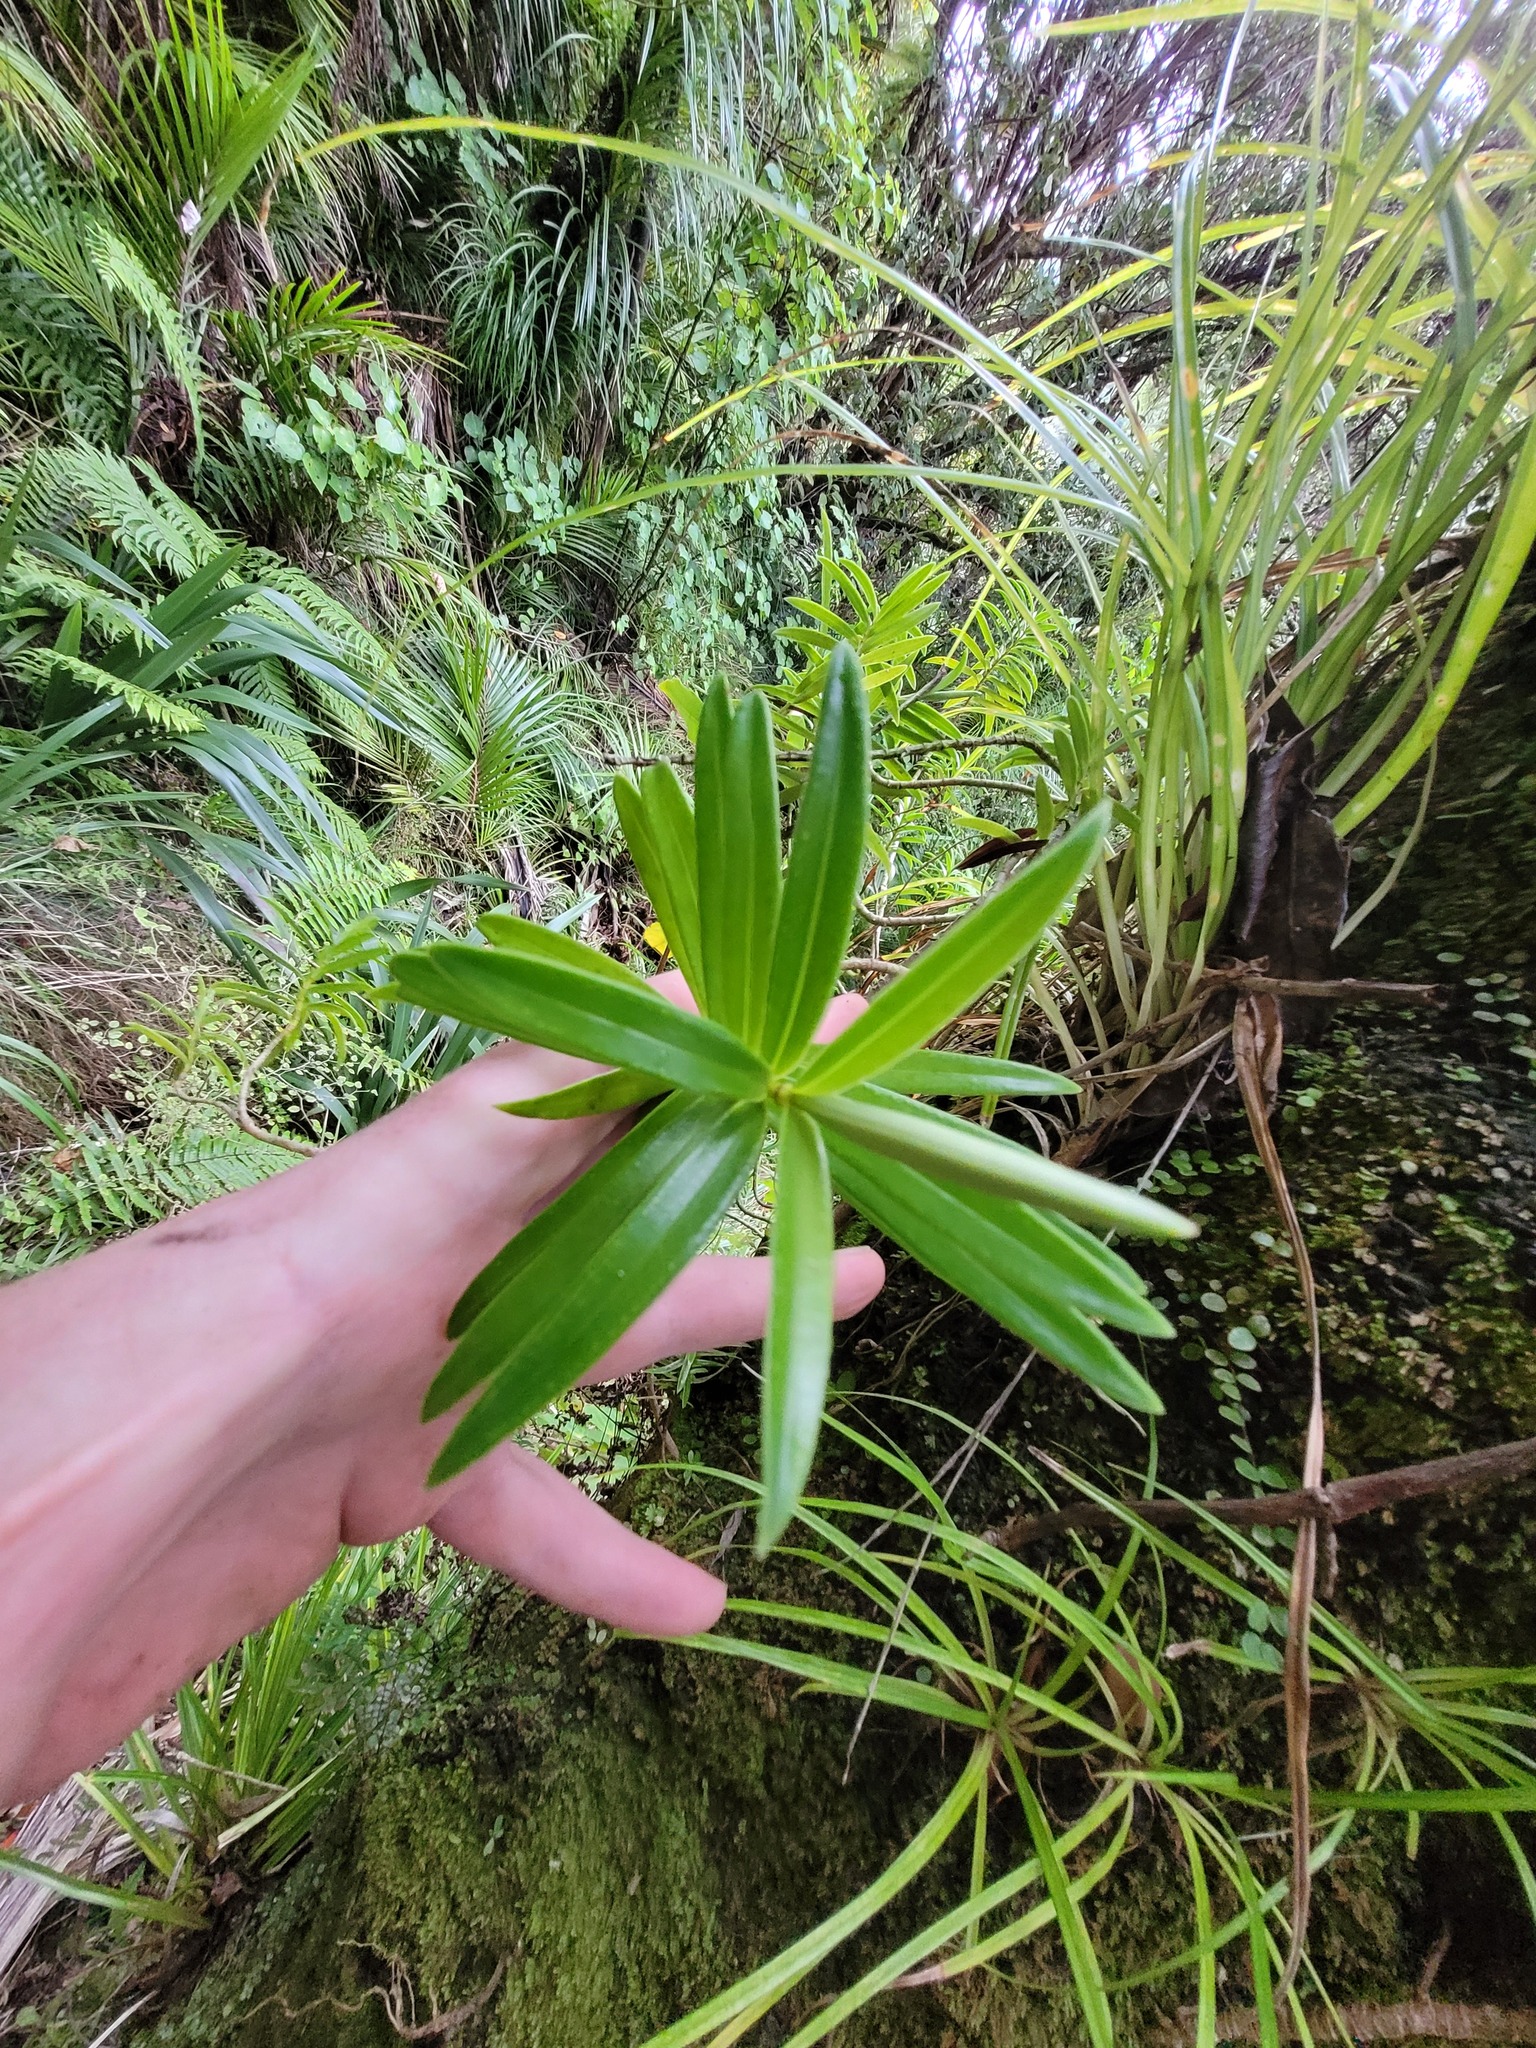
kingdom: Plantae
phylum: Tracheophyta
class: Magnoliopsida
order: Lamiales
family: Plantaginaceae
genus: Veronica
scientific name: Veronica townsonii
